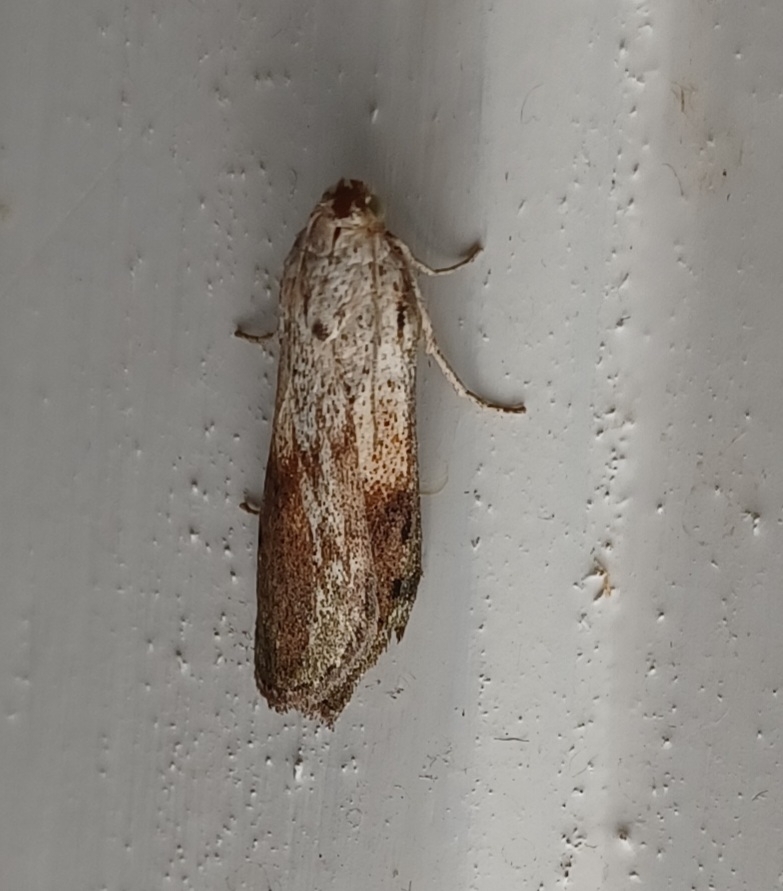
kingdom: Animalia
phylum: Arthropoda
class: Insecta
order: Lepidoptera
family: Pyralidae
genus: Aphomia
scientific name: Aphomia sociella
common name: Bee moth
